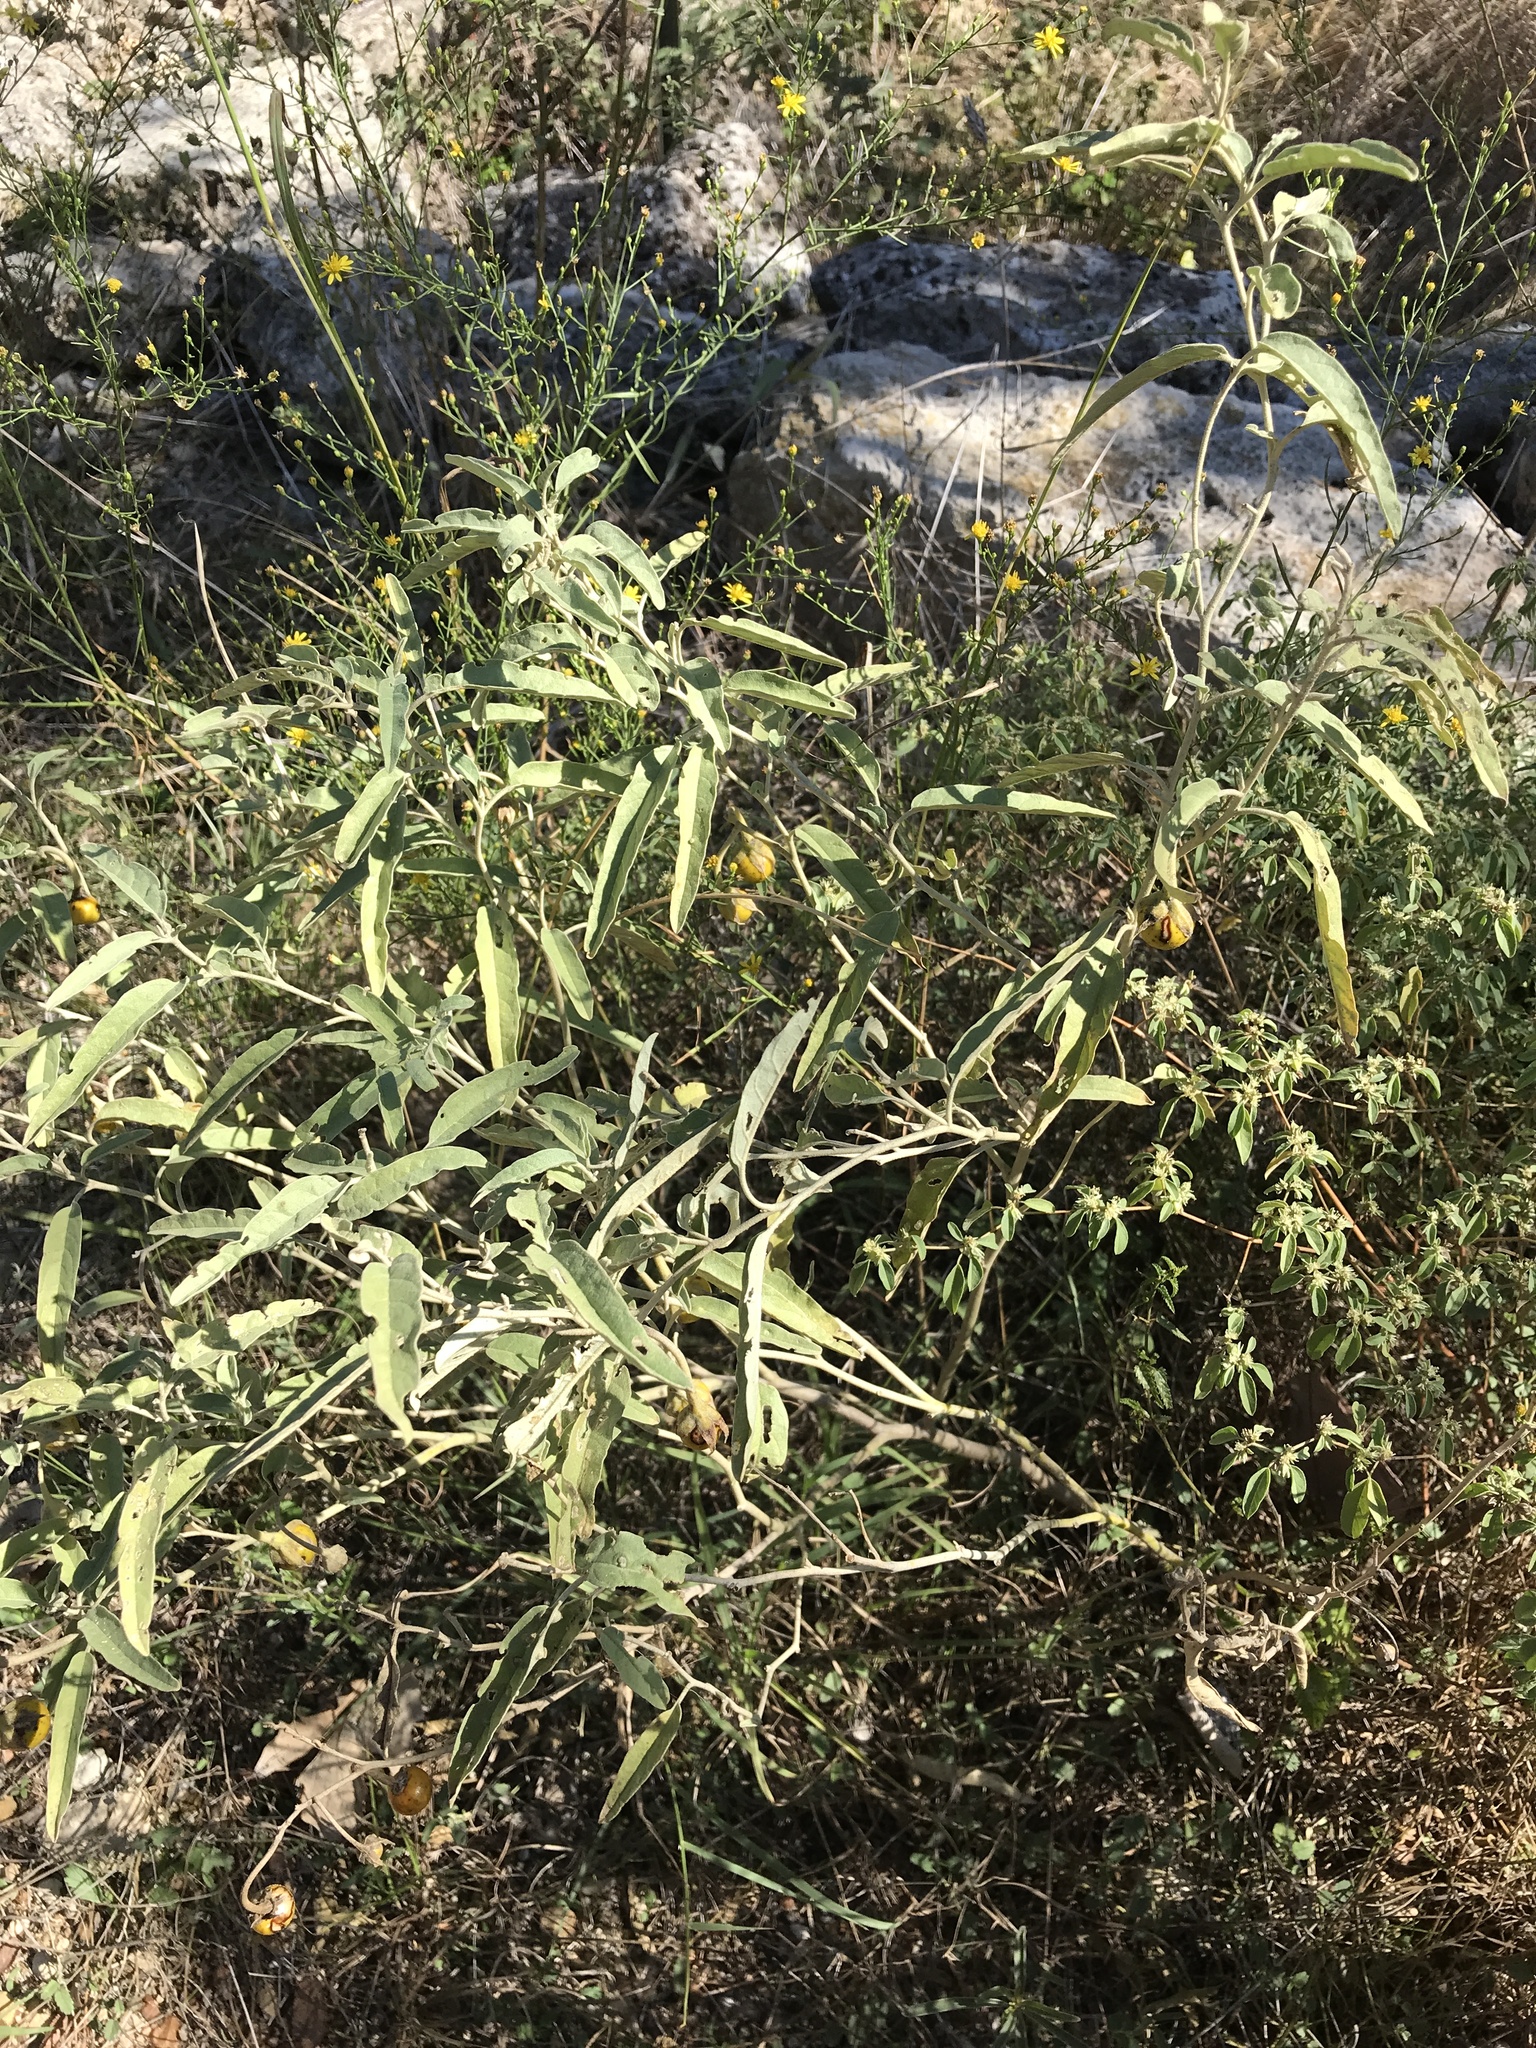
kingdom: Plantae
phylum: Tracheophyta
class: Magnoliopsida
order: Solanales
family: Solanaceae
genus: Solanum
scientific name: Solanum elaeagnifolium
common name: Silverleaf nightshade
